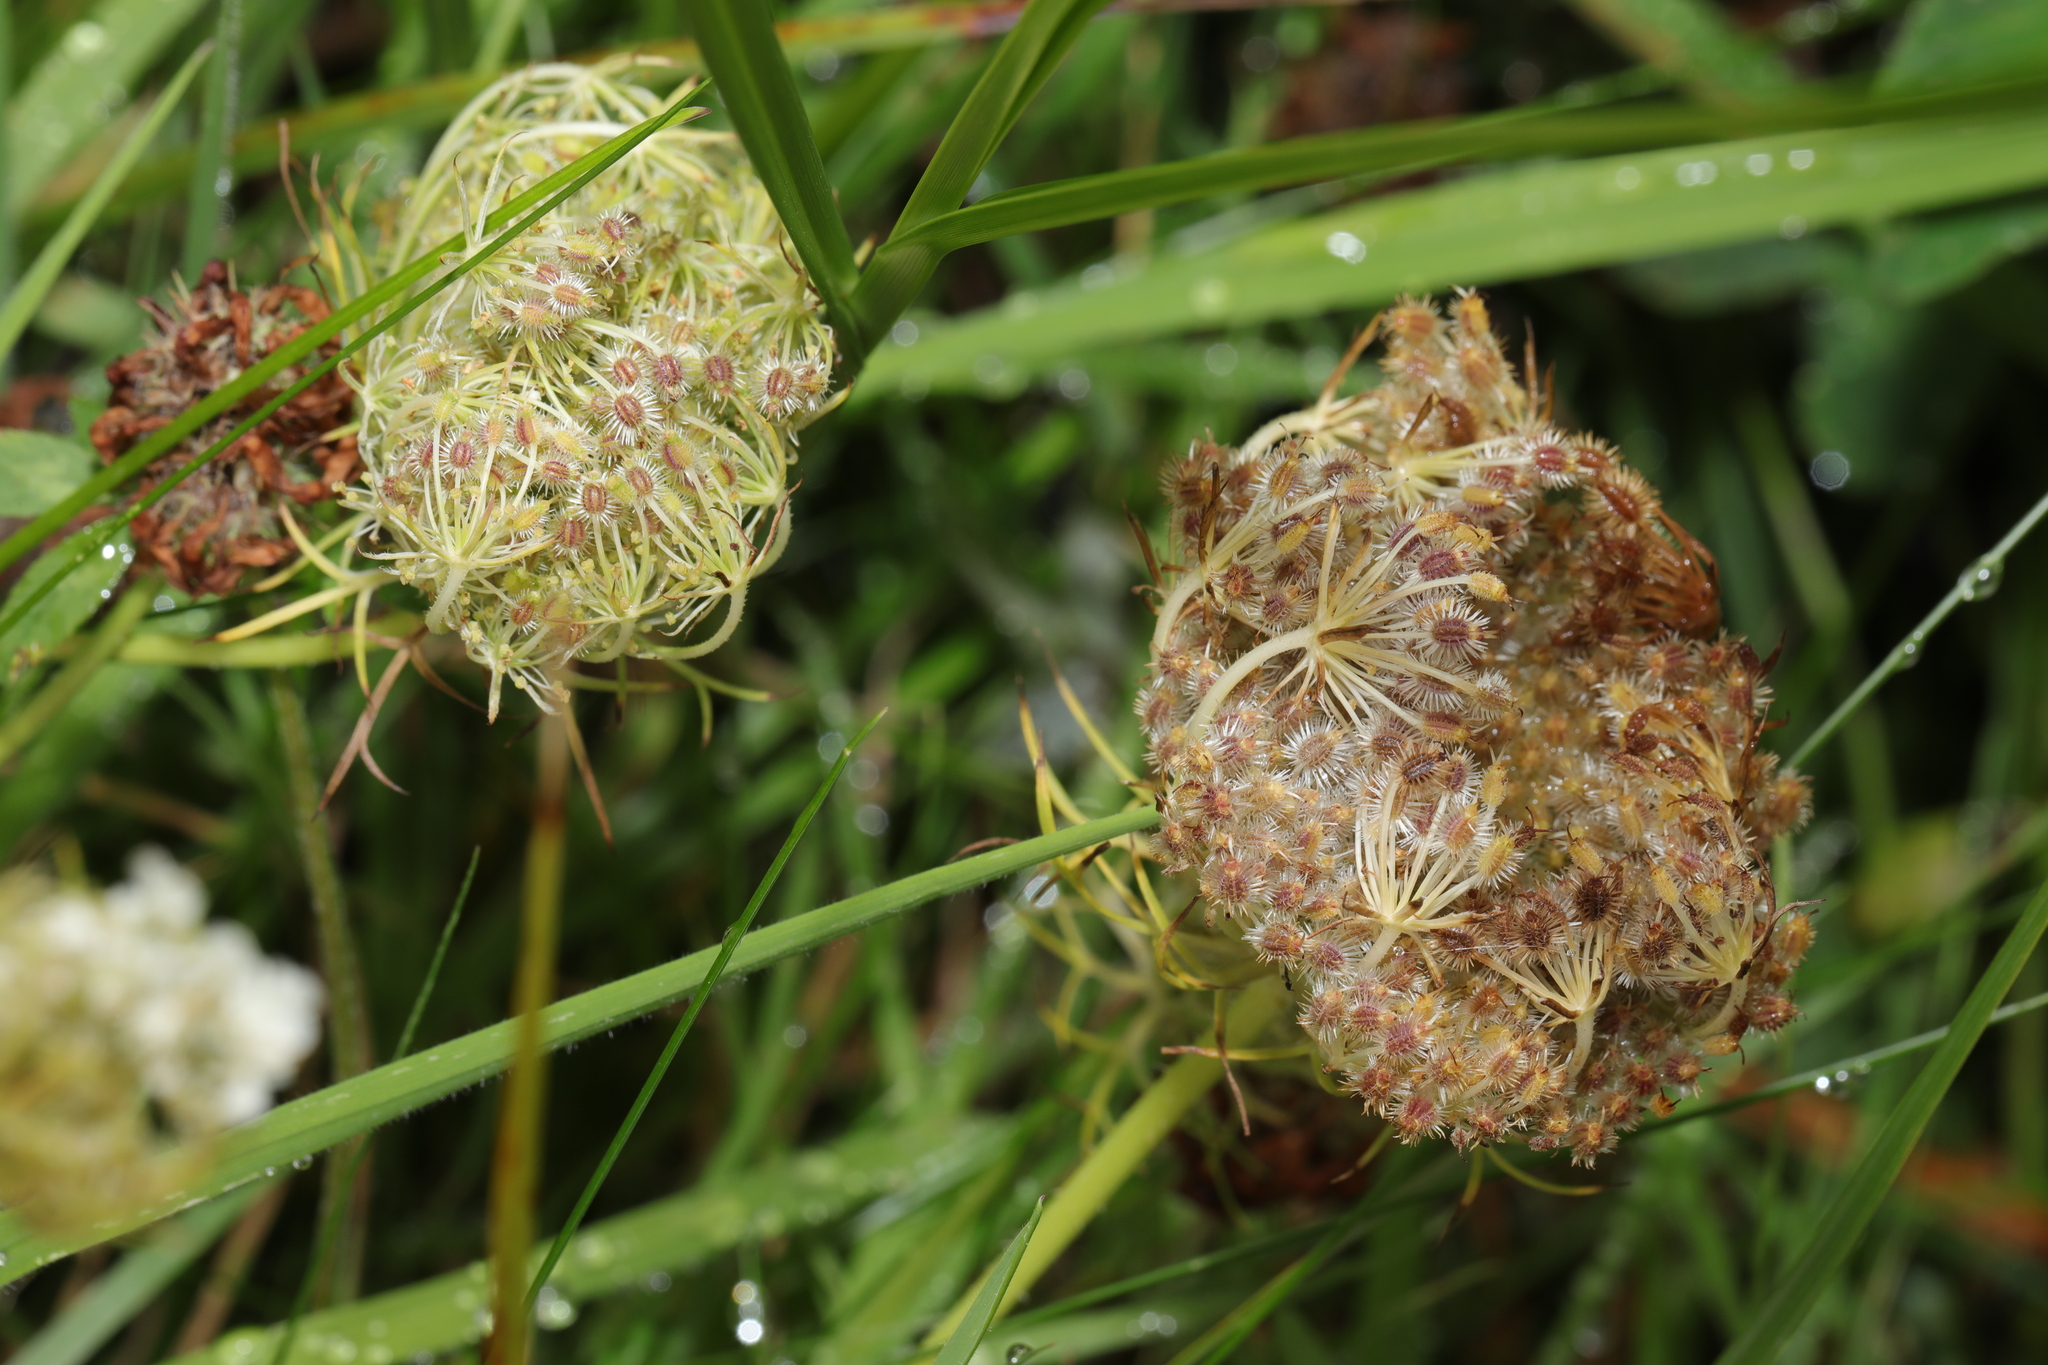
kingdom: Plantae
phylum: Tracheophyta
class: Magnoliopsida
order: Apiales
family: Apiaceae
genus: Daucus
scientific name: Daucus carota
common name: Wild carrot
